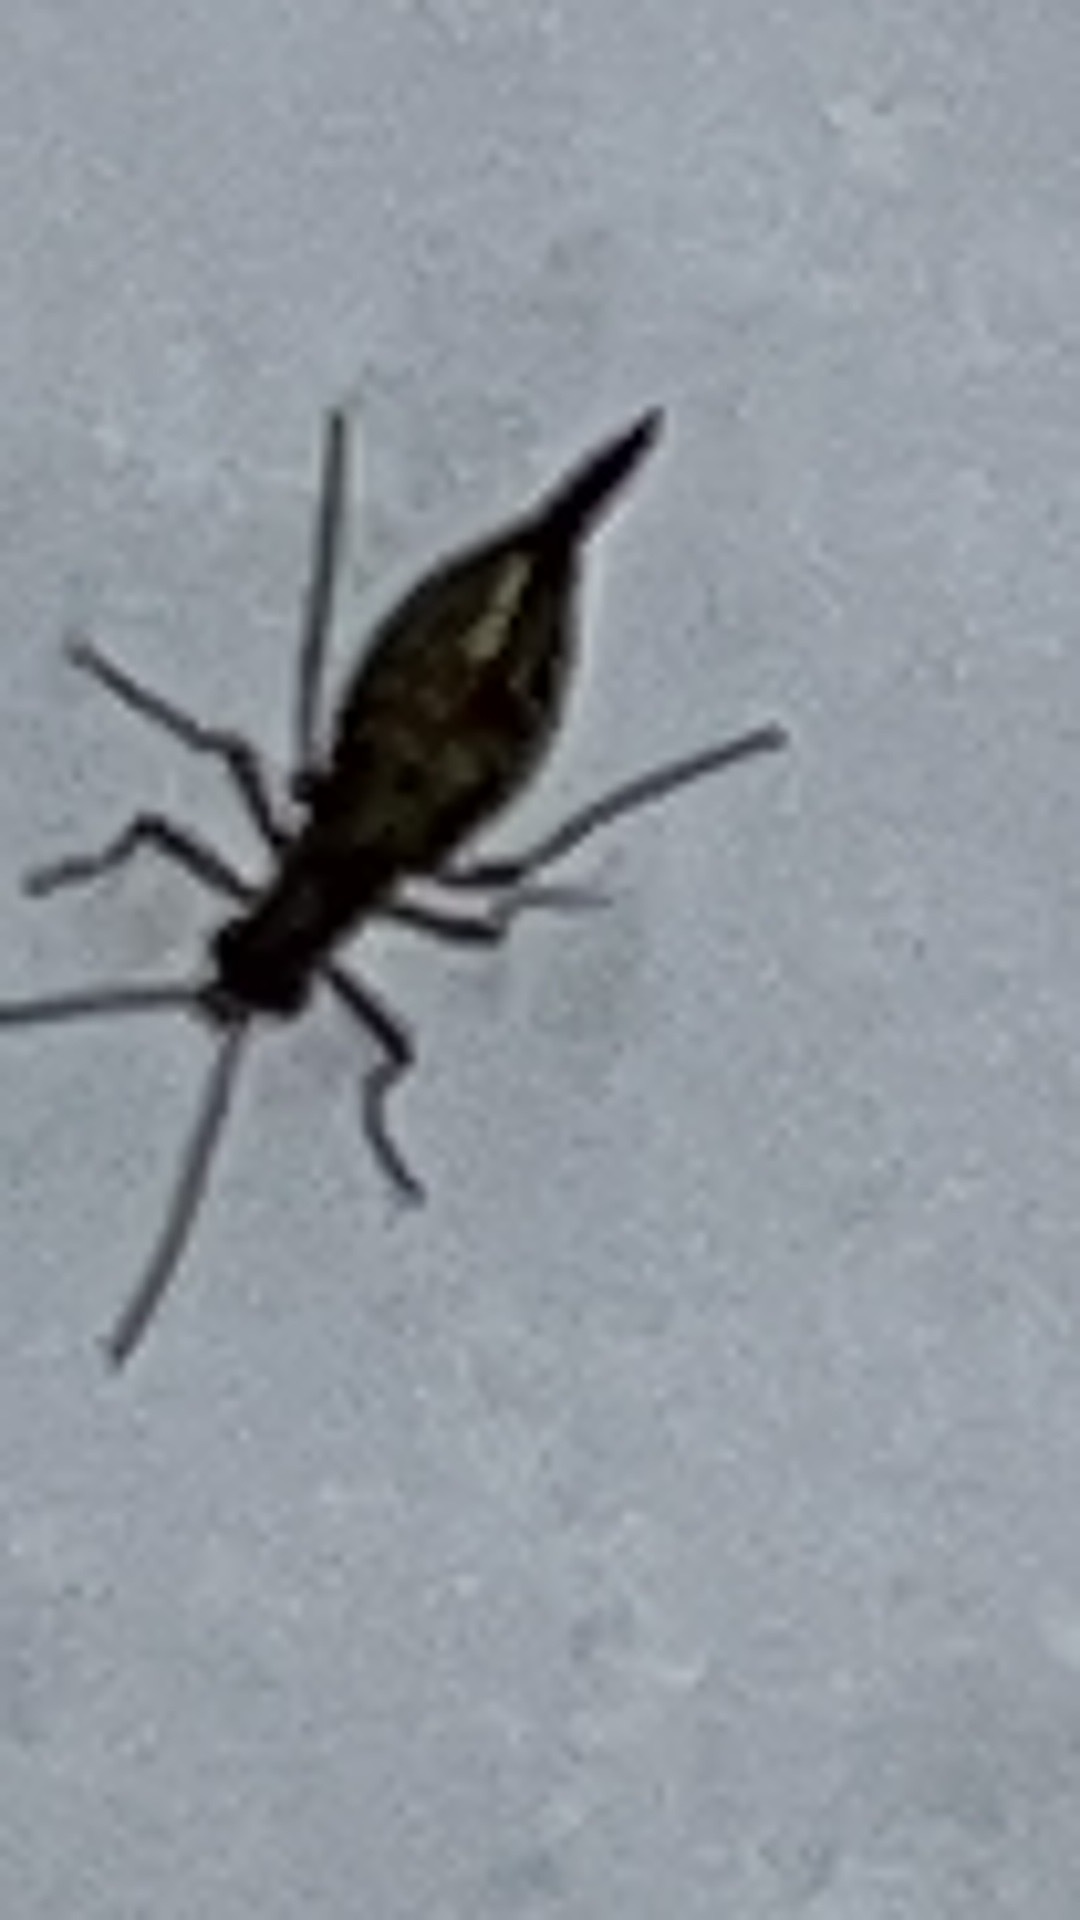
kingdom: Animalia
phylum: Arthropoda
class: Insecta
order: Mecoptera
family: Boreidae
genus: Boreus
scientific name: Boreus brumalis
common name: Mid-winter boreus
